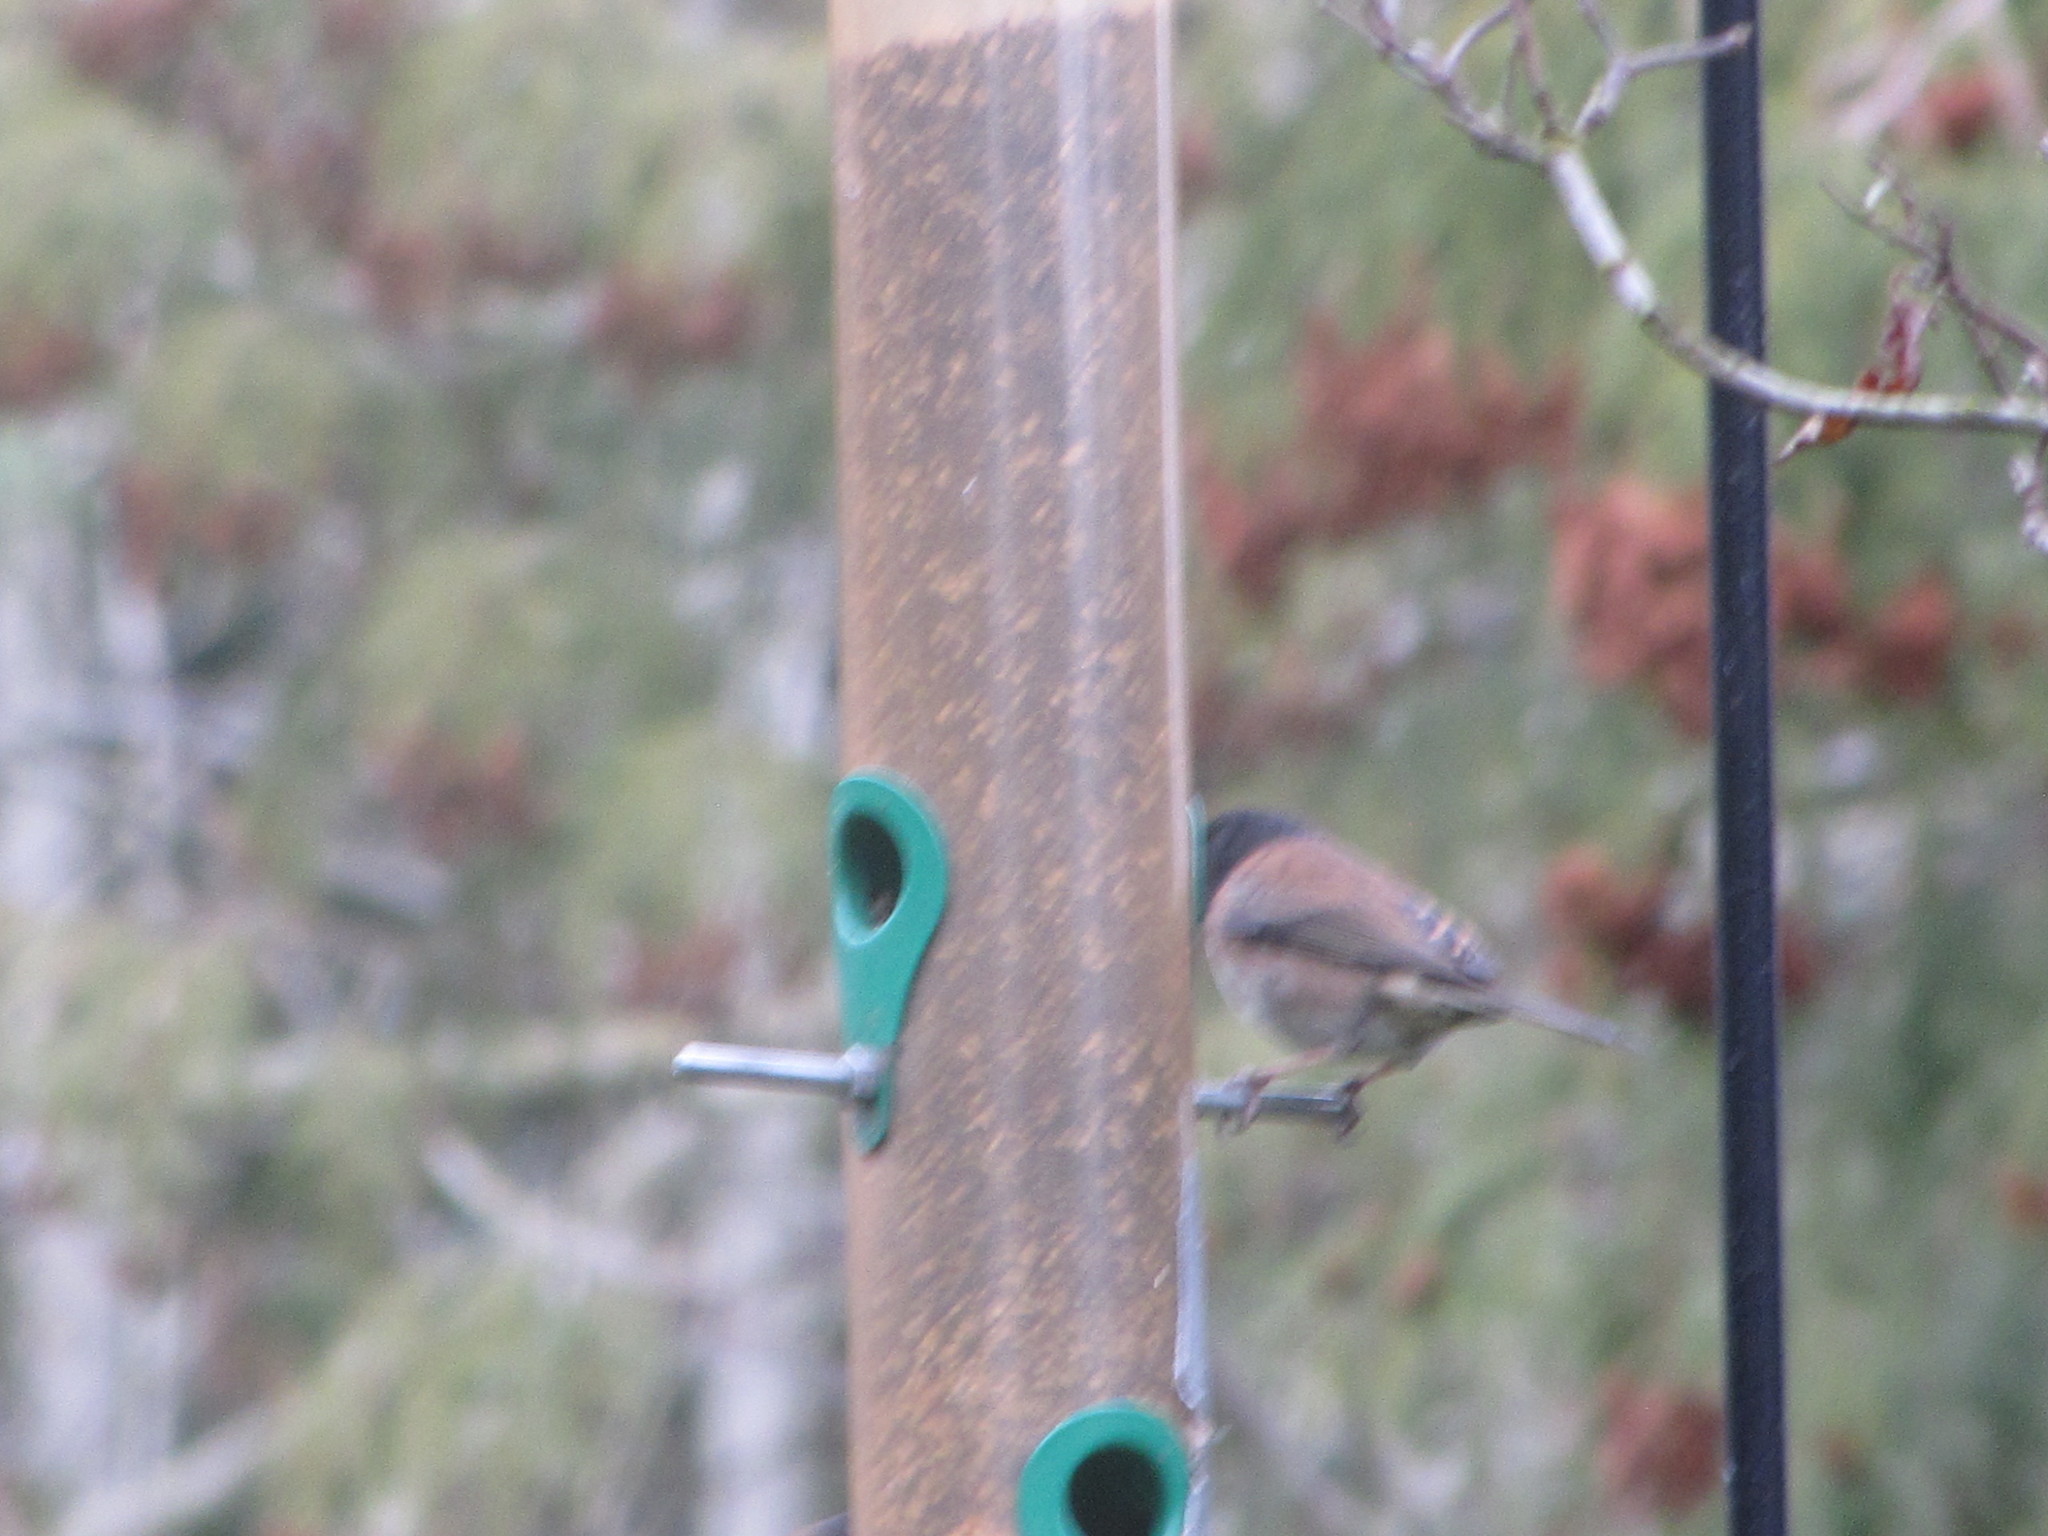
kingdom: Animalia
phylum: Chordata
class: Aves
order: Passeriformes
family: Passerellidae
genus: Junco
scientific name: Junco hyemalis
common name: Dark-eyed junco
